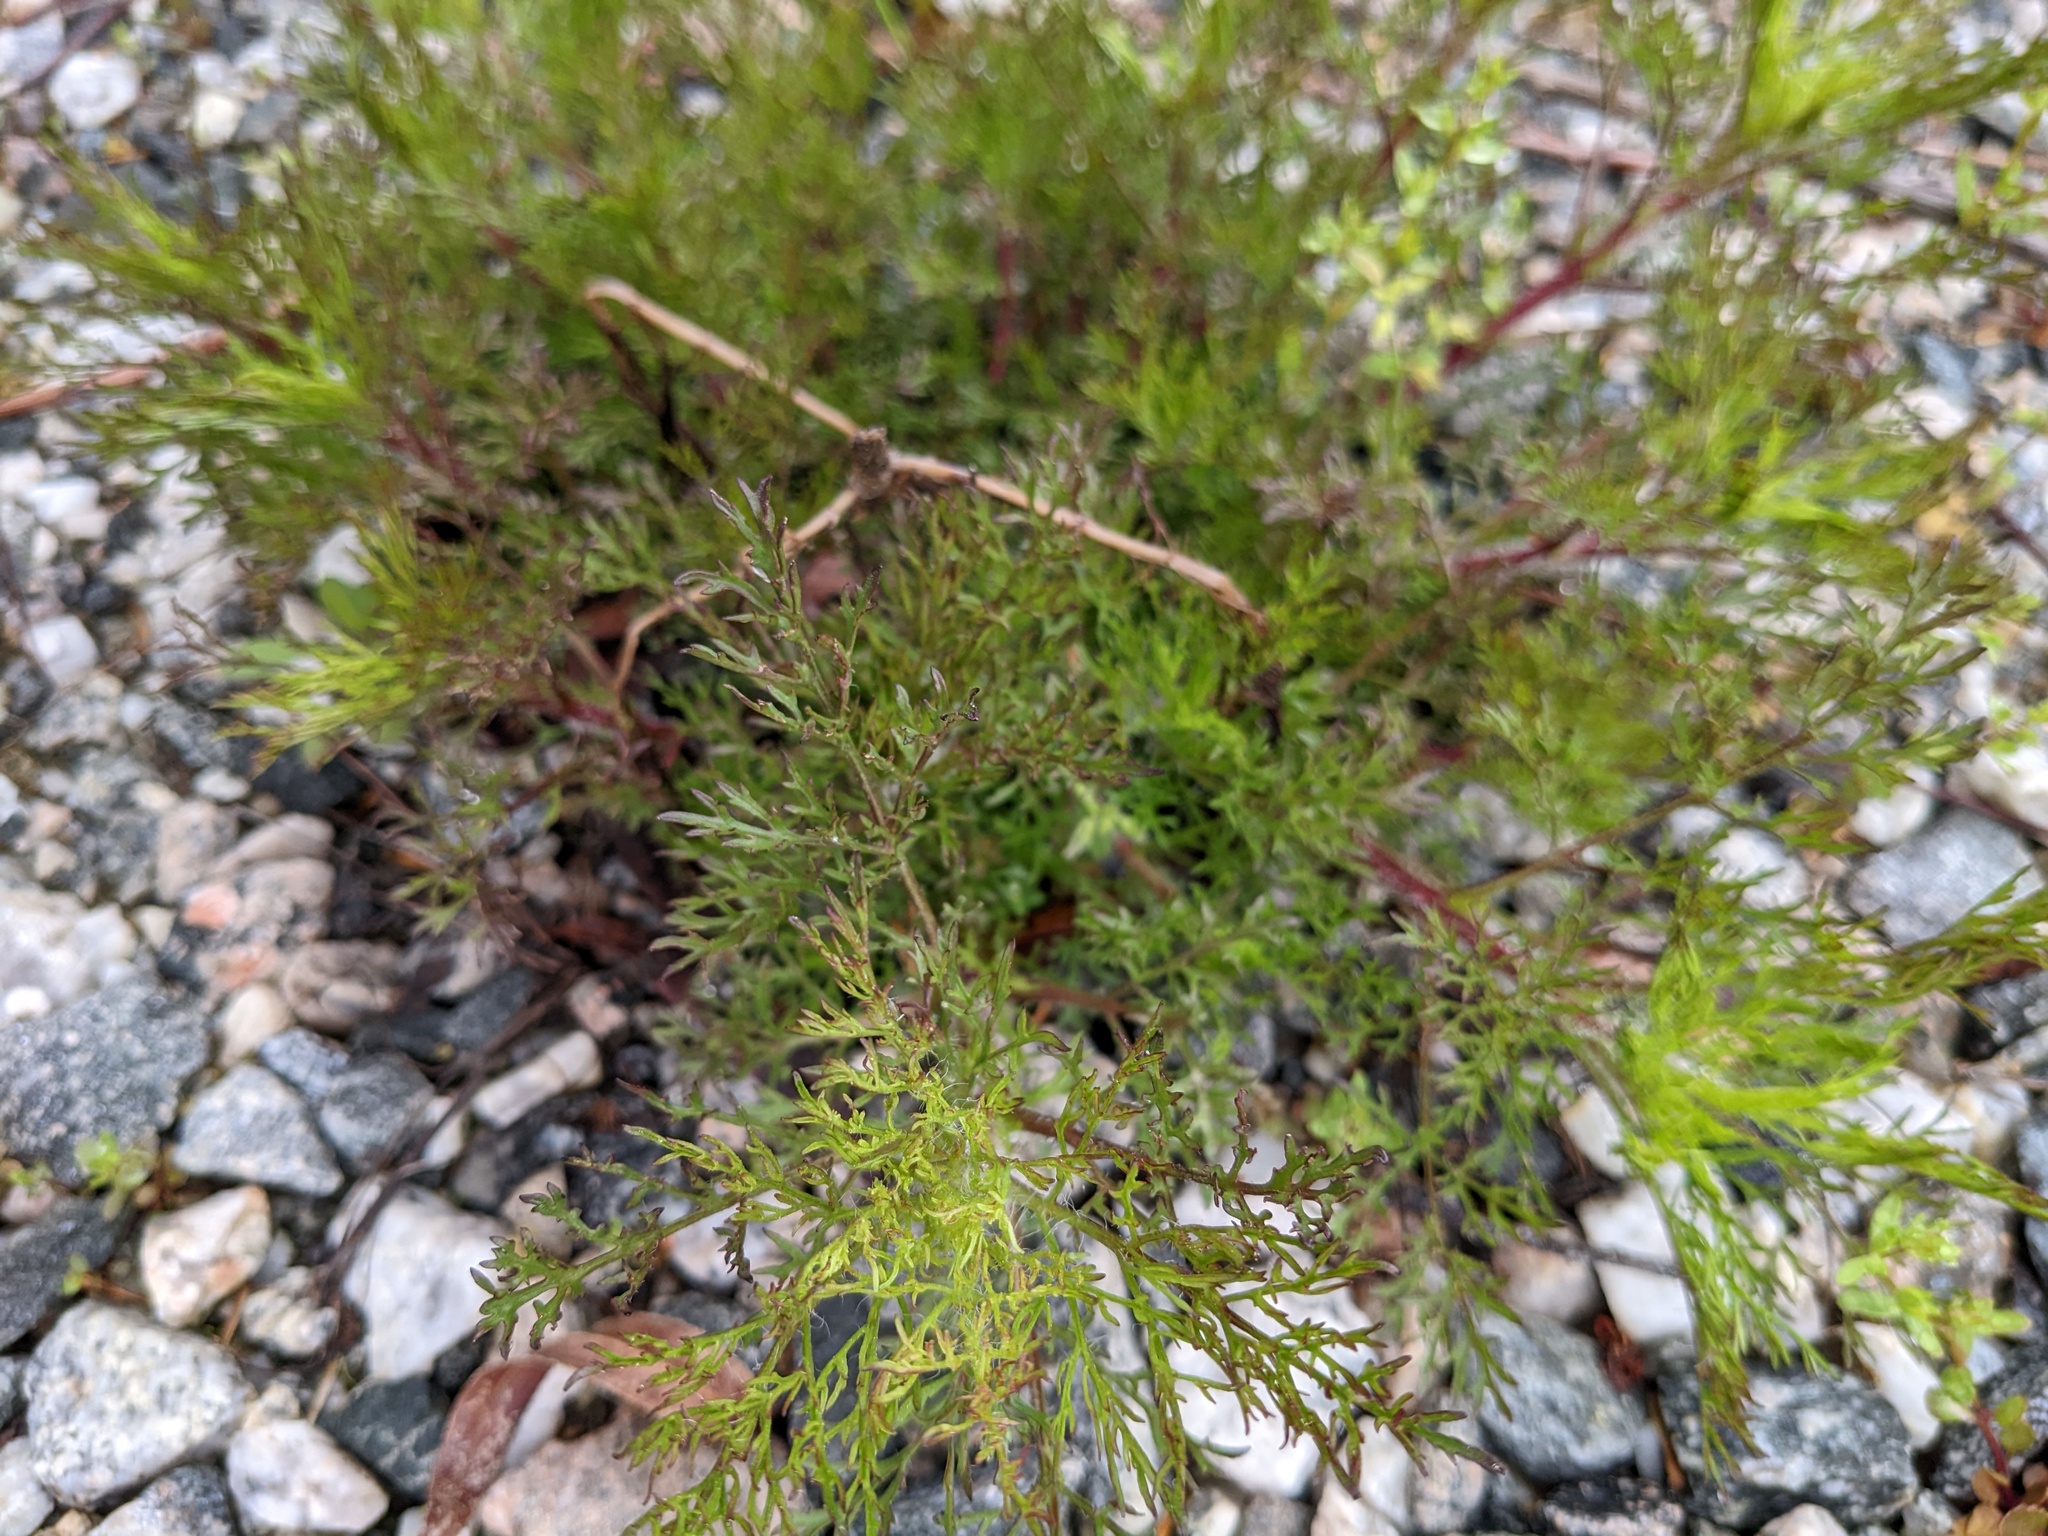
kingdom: Plantae
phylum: Tracheophyta
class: Magnoliopsida
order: Asterales
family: Asteraceae
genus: Eupatorium
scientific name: Eupatorium capillifolium
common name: Dog-fennel
